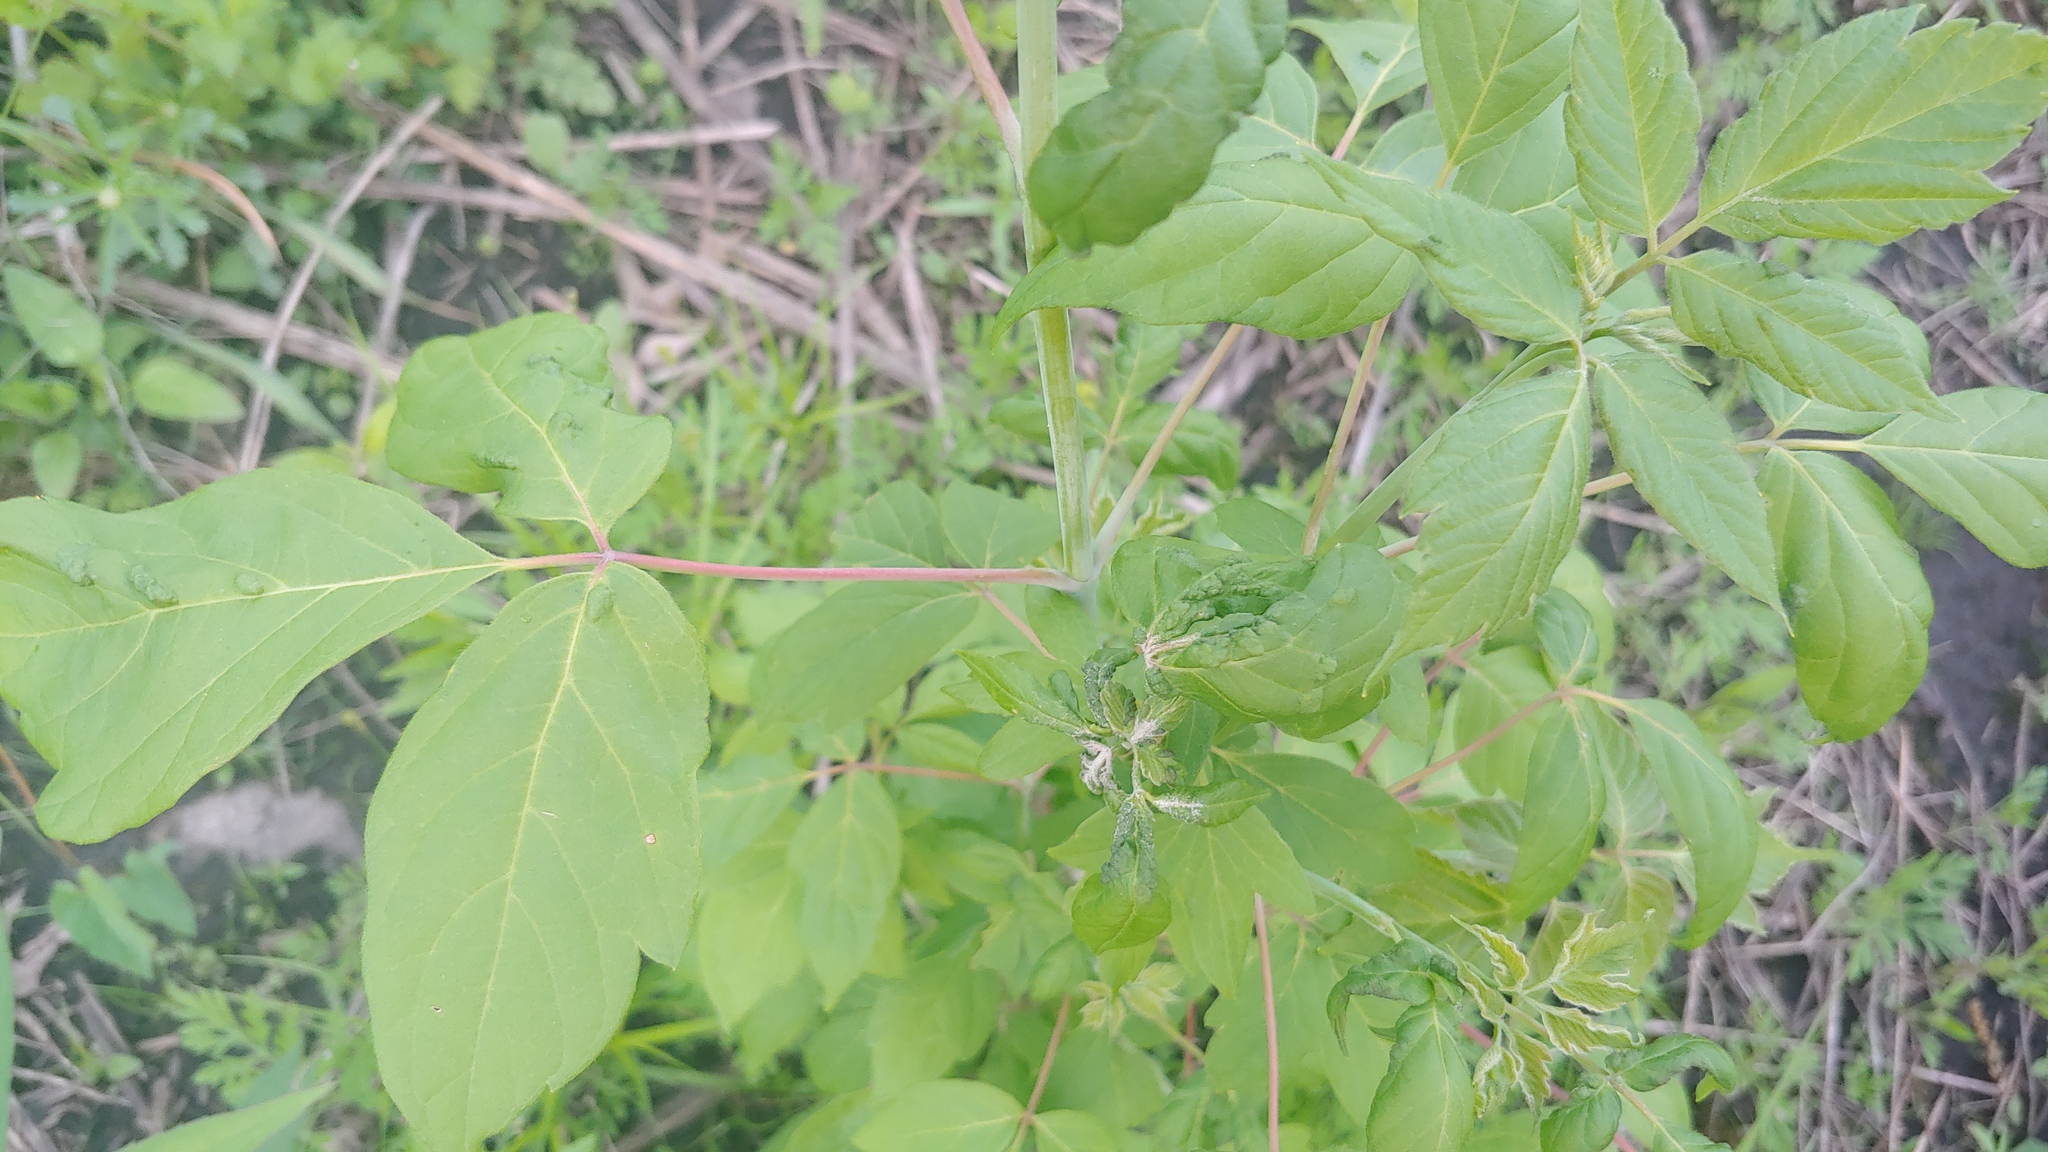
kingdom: Animalia
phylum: Arthropoda
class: Arachnida
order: Trombidiformes
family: Eriophyidae
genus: Aceria
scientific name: Aceria
